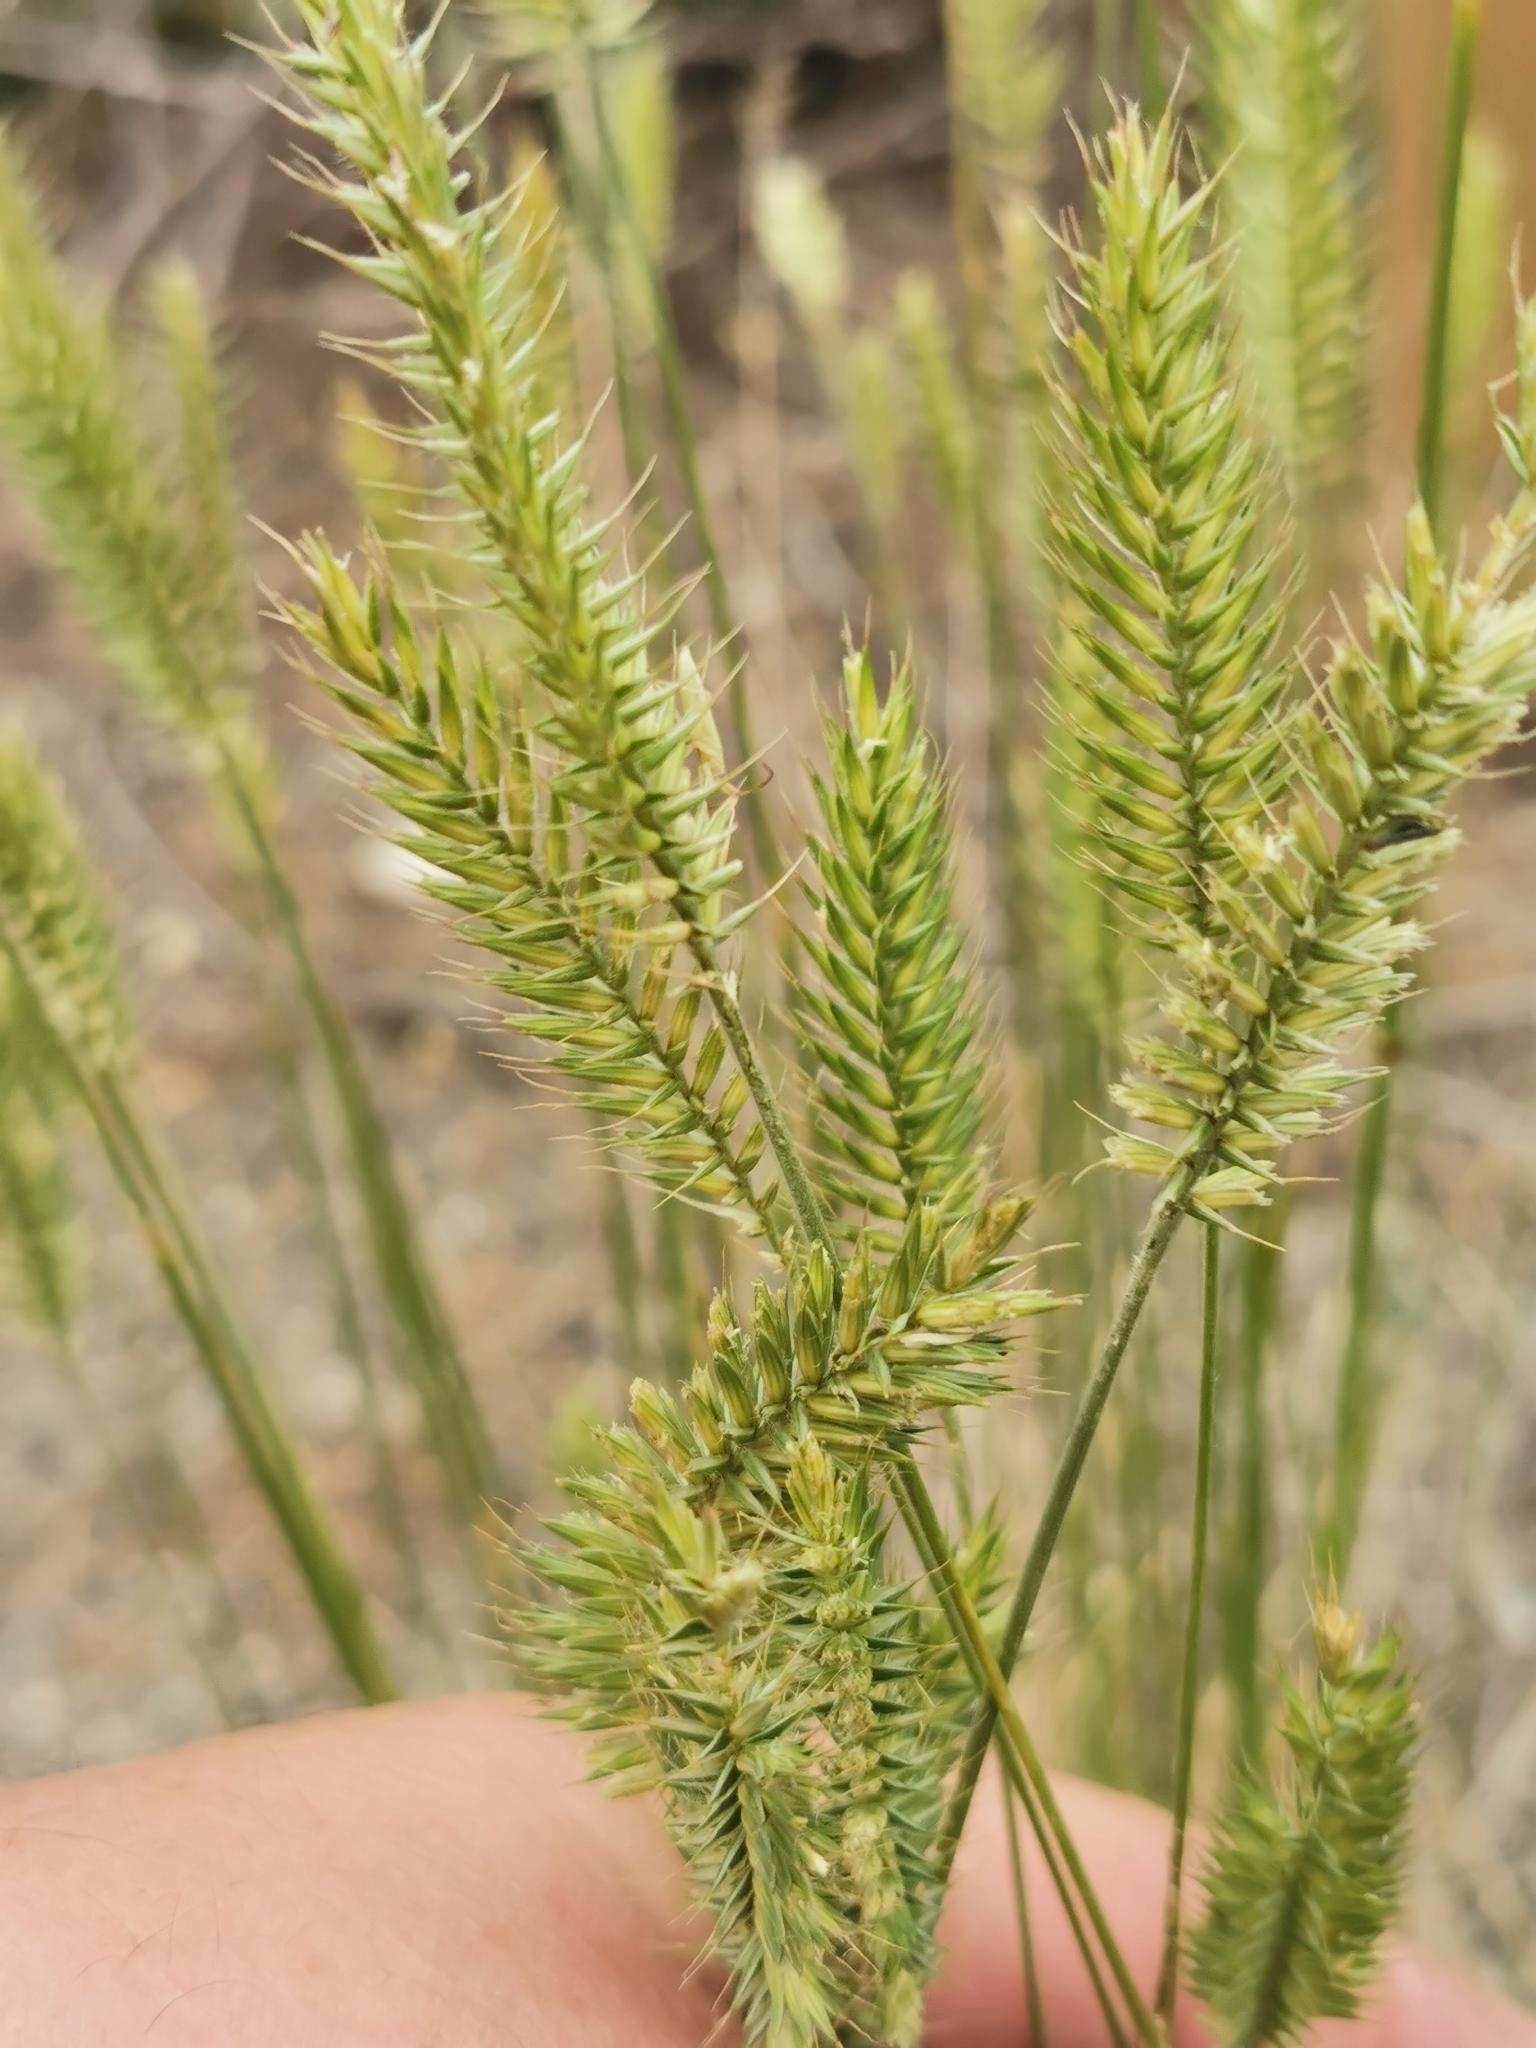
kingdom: Plantae
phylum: Tracheophyta
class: Liliopsida
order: Poales
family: Poaceae
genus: Agropyron
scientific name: Agropyron cristatum
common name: Crested wheatgrass
